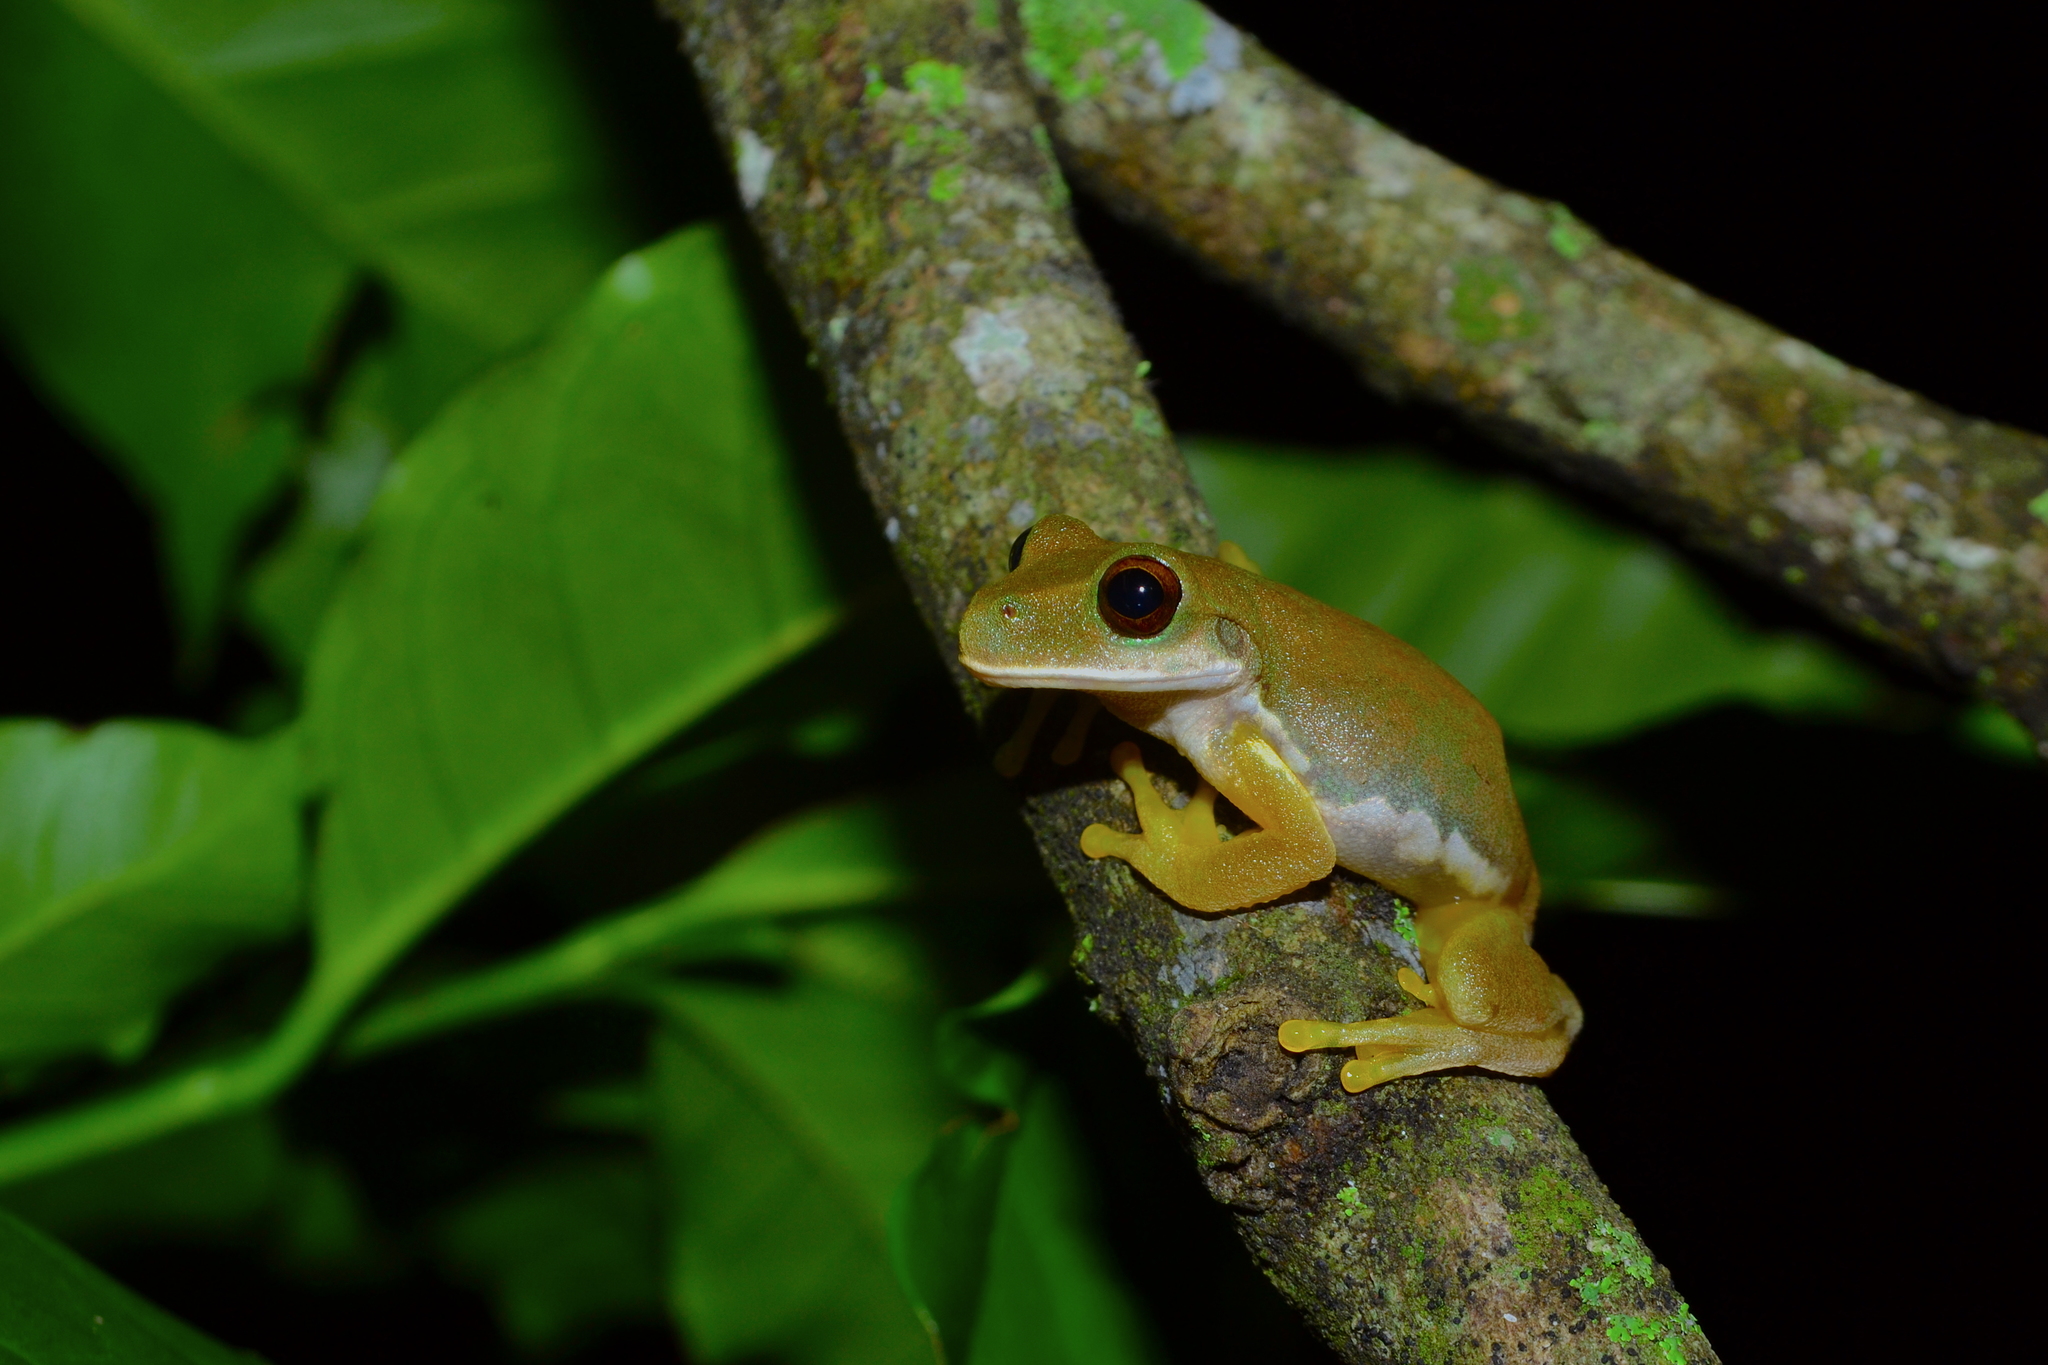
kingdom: Animalia
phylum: Chordata
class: Amphibia
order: Anura
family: Hylidae
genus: Ptychohyla
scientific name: Ptychohyla euthysanota
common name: Cloud forest stream frog
